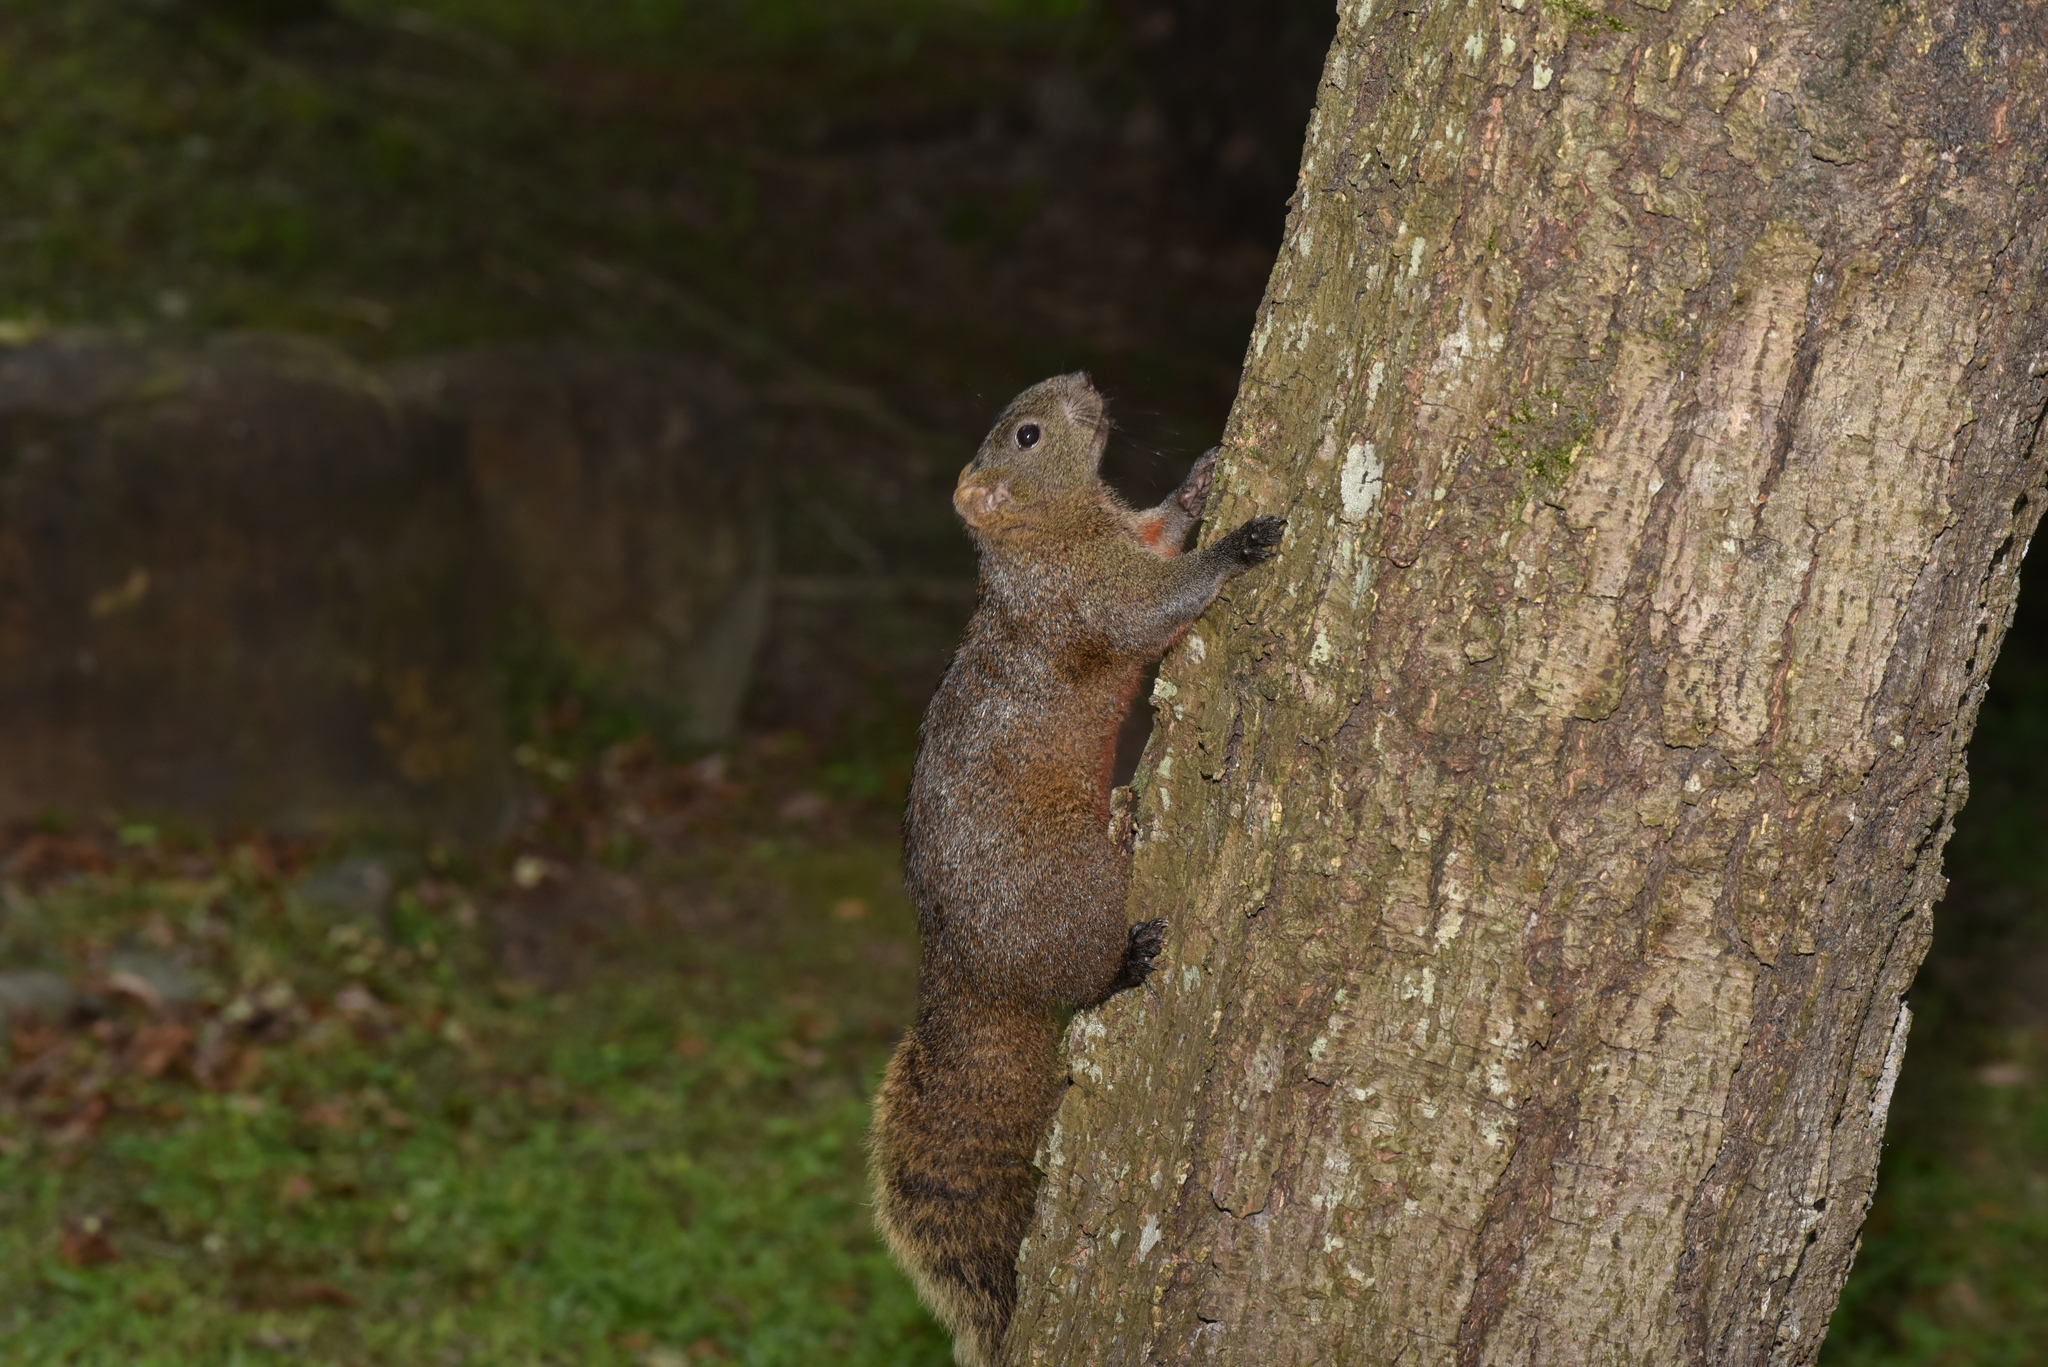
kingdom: Animalia
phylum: Chordata
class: Mammalia
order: Rodentia
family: Sciuridae
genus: Callosciurus
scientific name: Callosciurus erythraeus
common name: Pallas's squirrel
